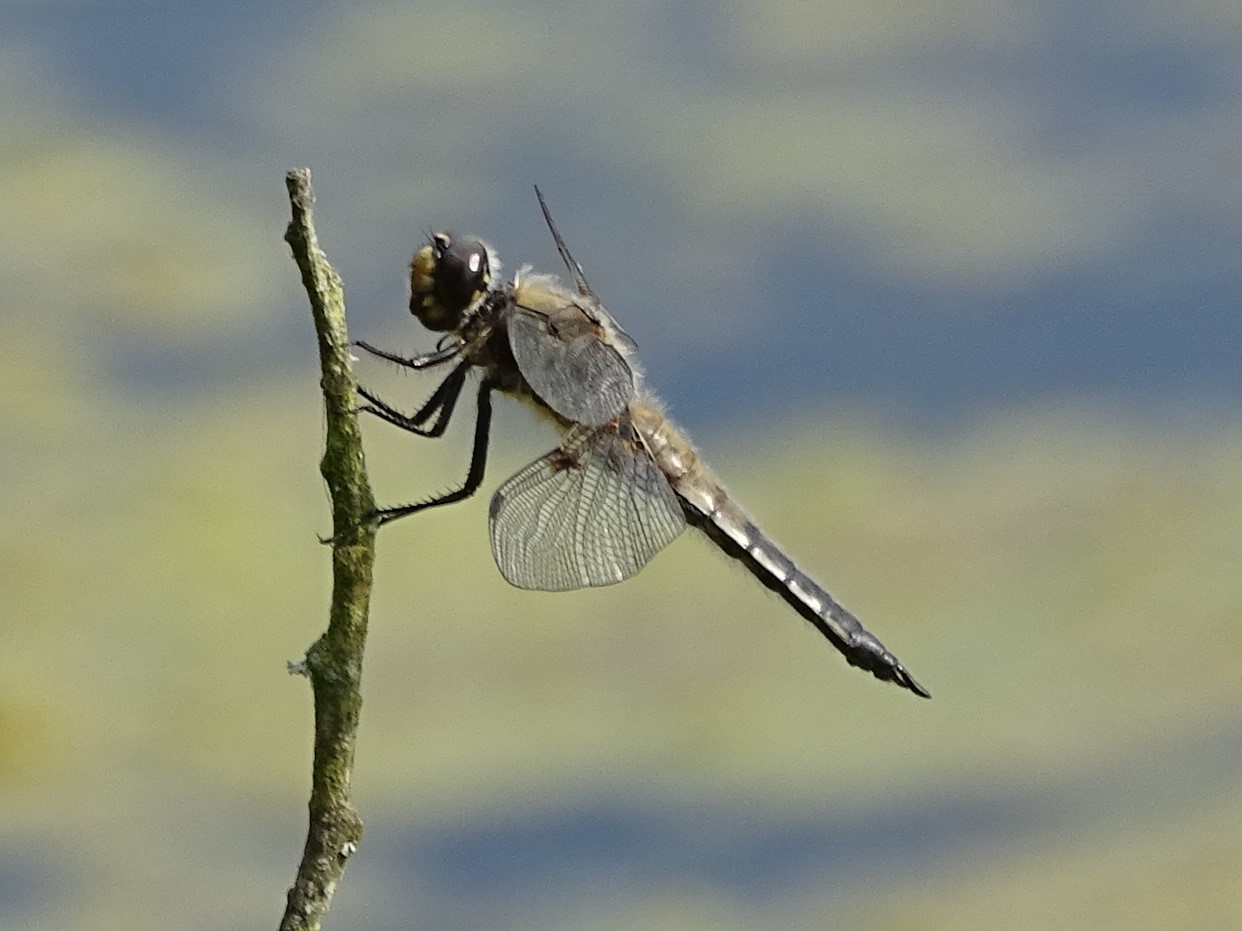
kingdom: Animalia
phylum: Arthropoda
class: Insecta
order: Odonata
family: Libellulidae
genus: Libellula
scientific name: Libellula quadrimaculata
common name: Four-spotted chaser
